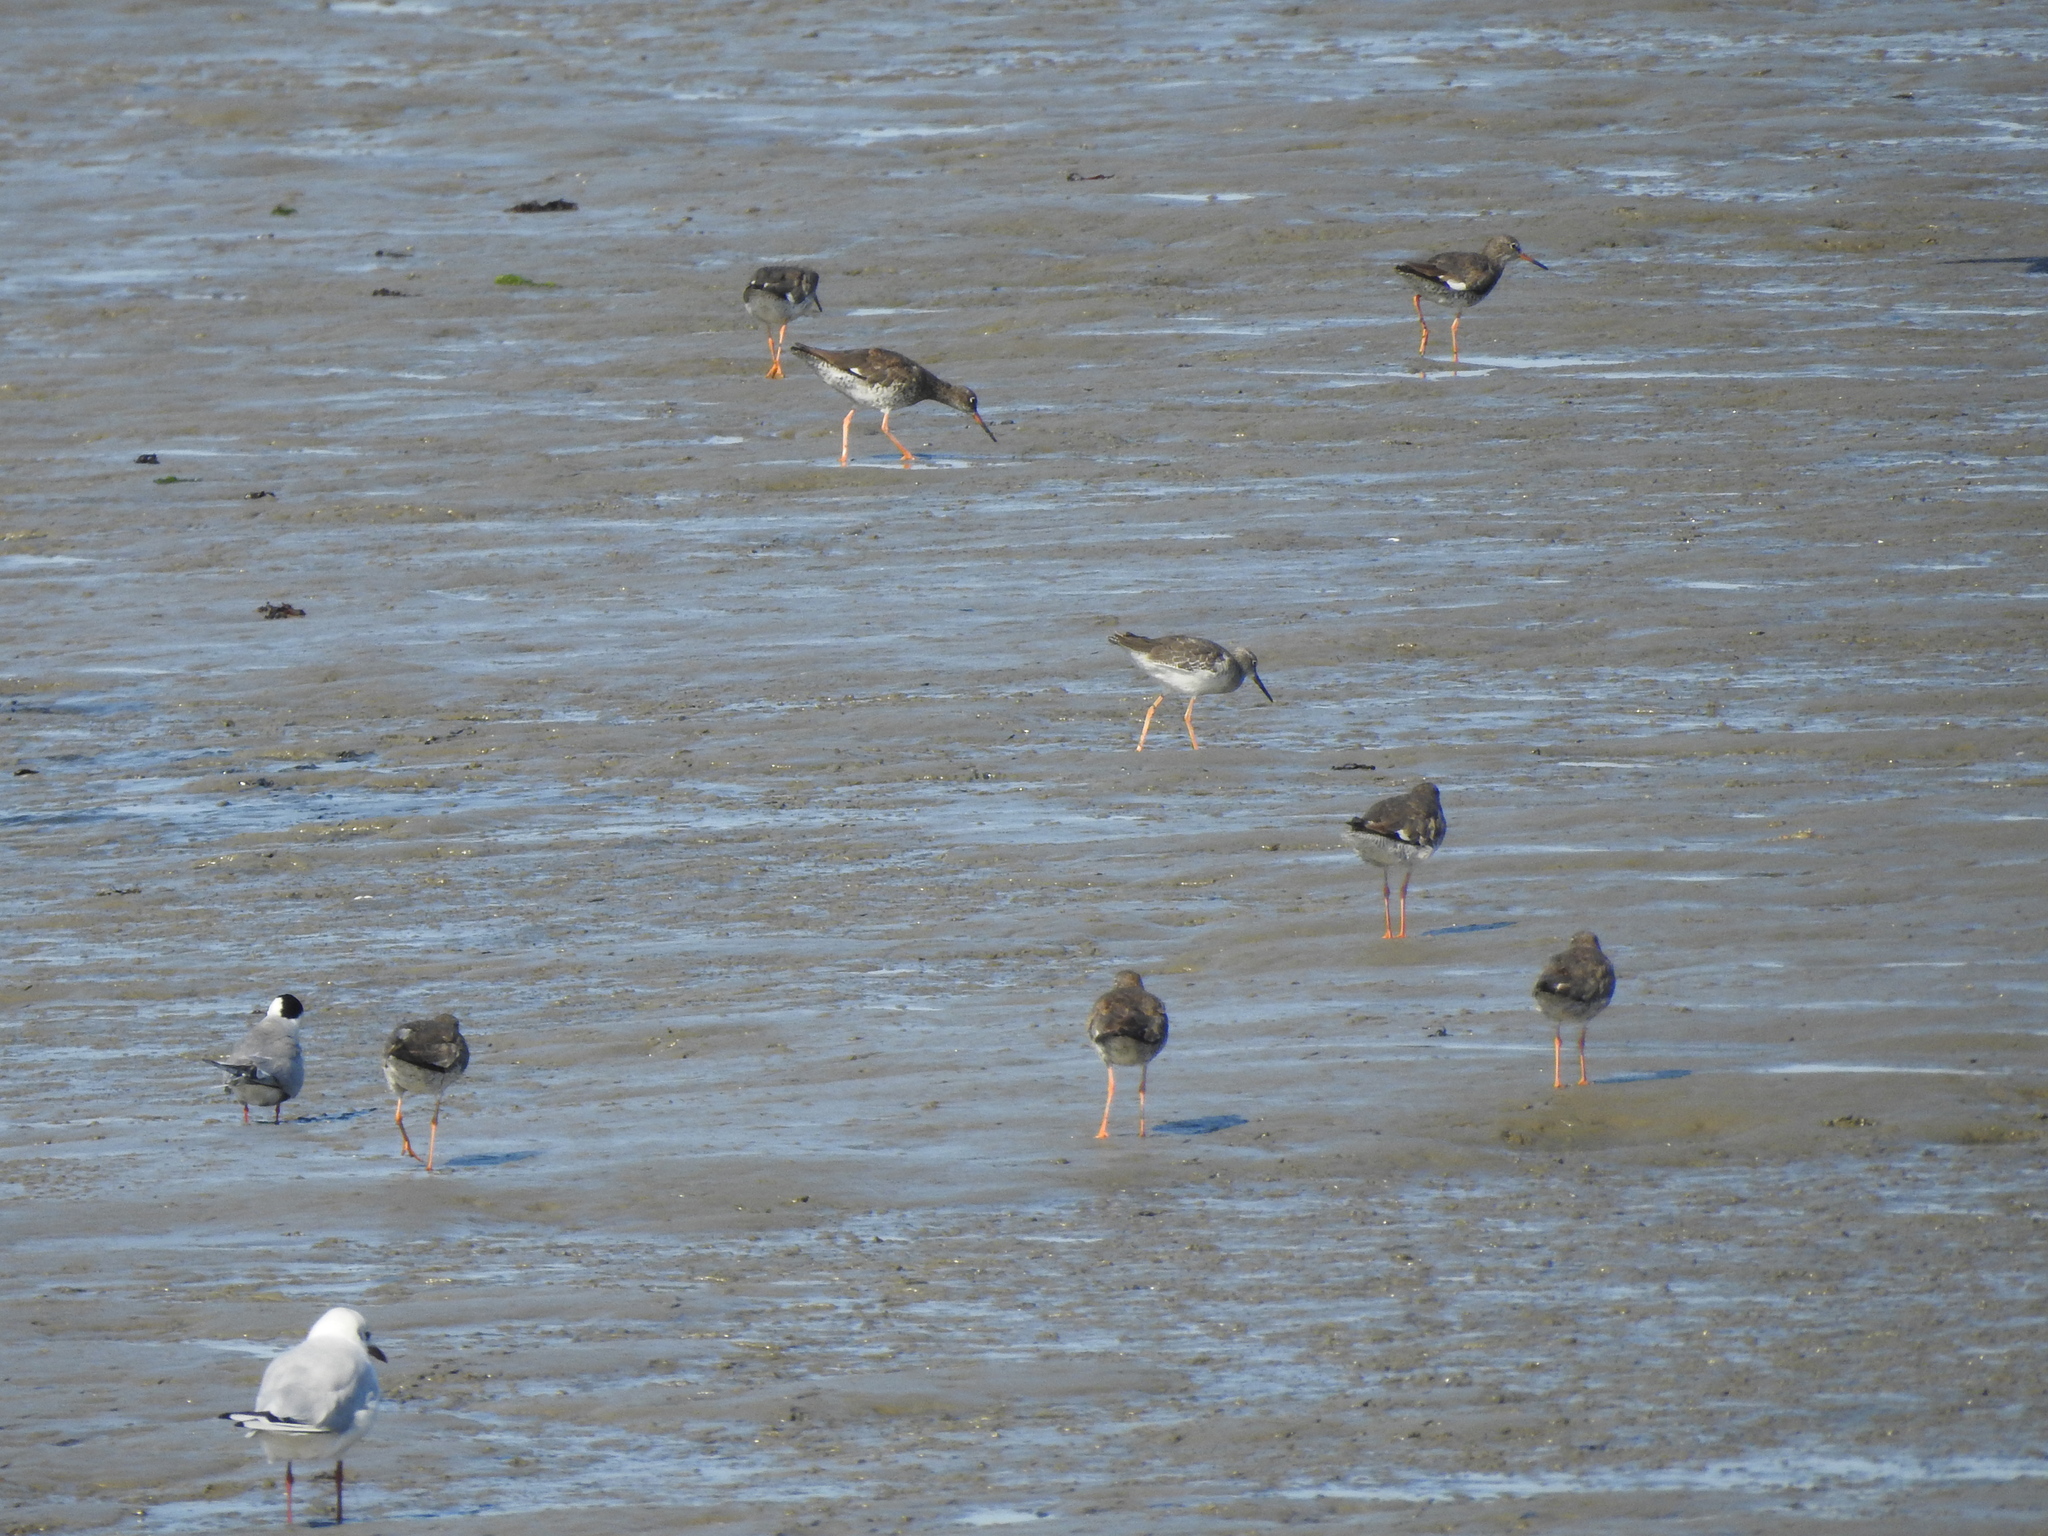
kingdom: Animalia
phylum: Chordata
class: Aves
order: Charadriiformes
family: Scolopacidae
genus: Tringa
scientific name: Tringa totanus
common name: Common redshank
